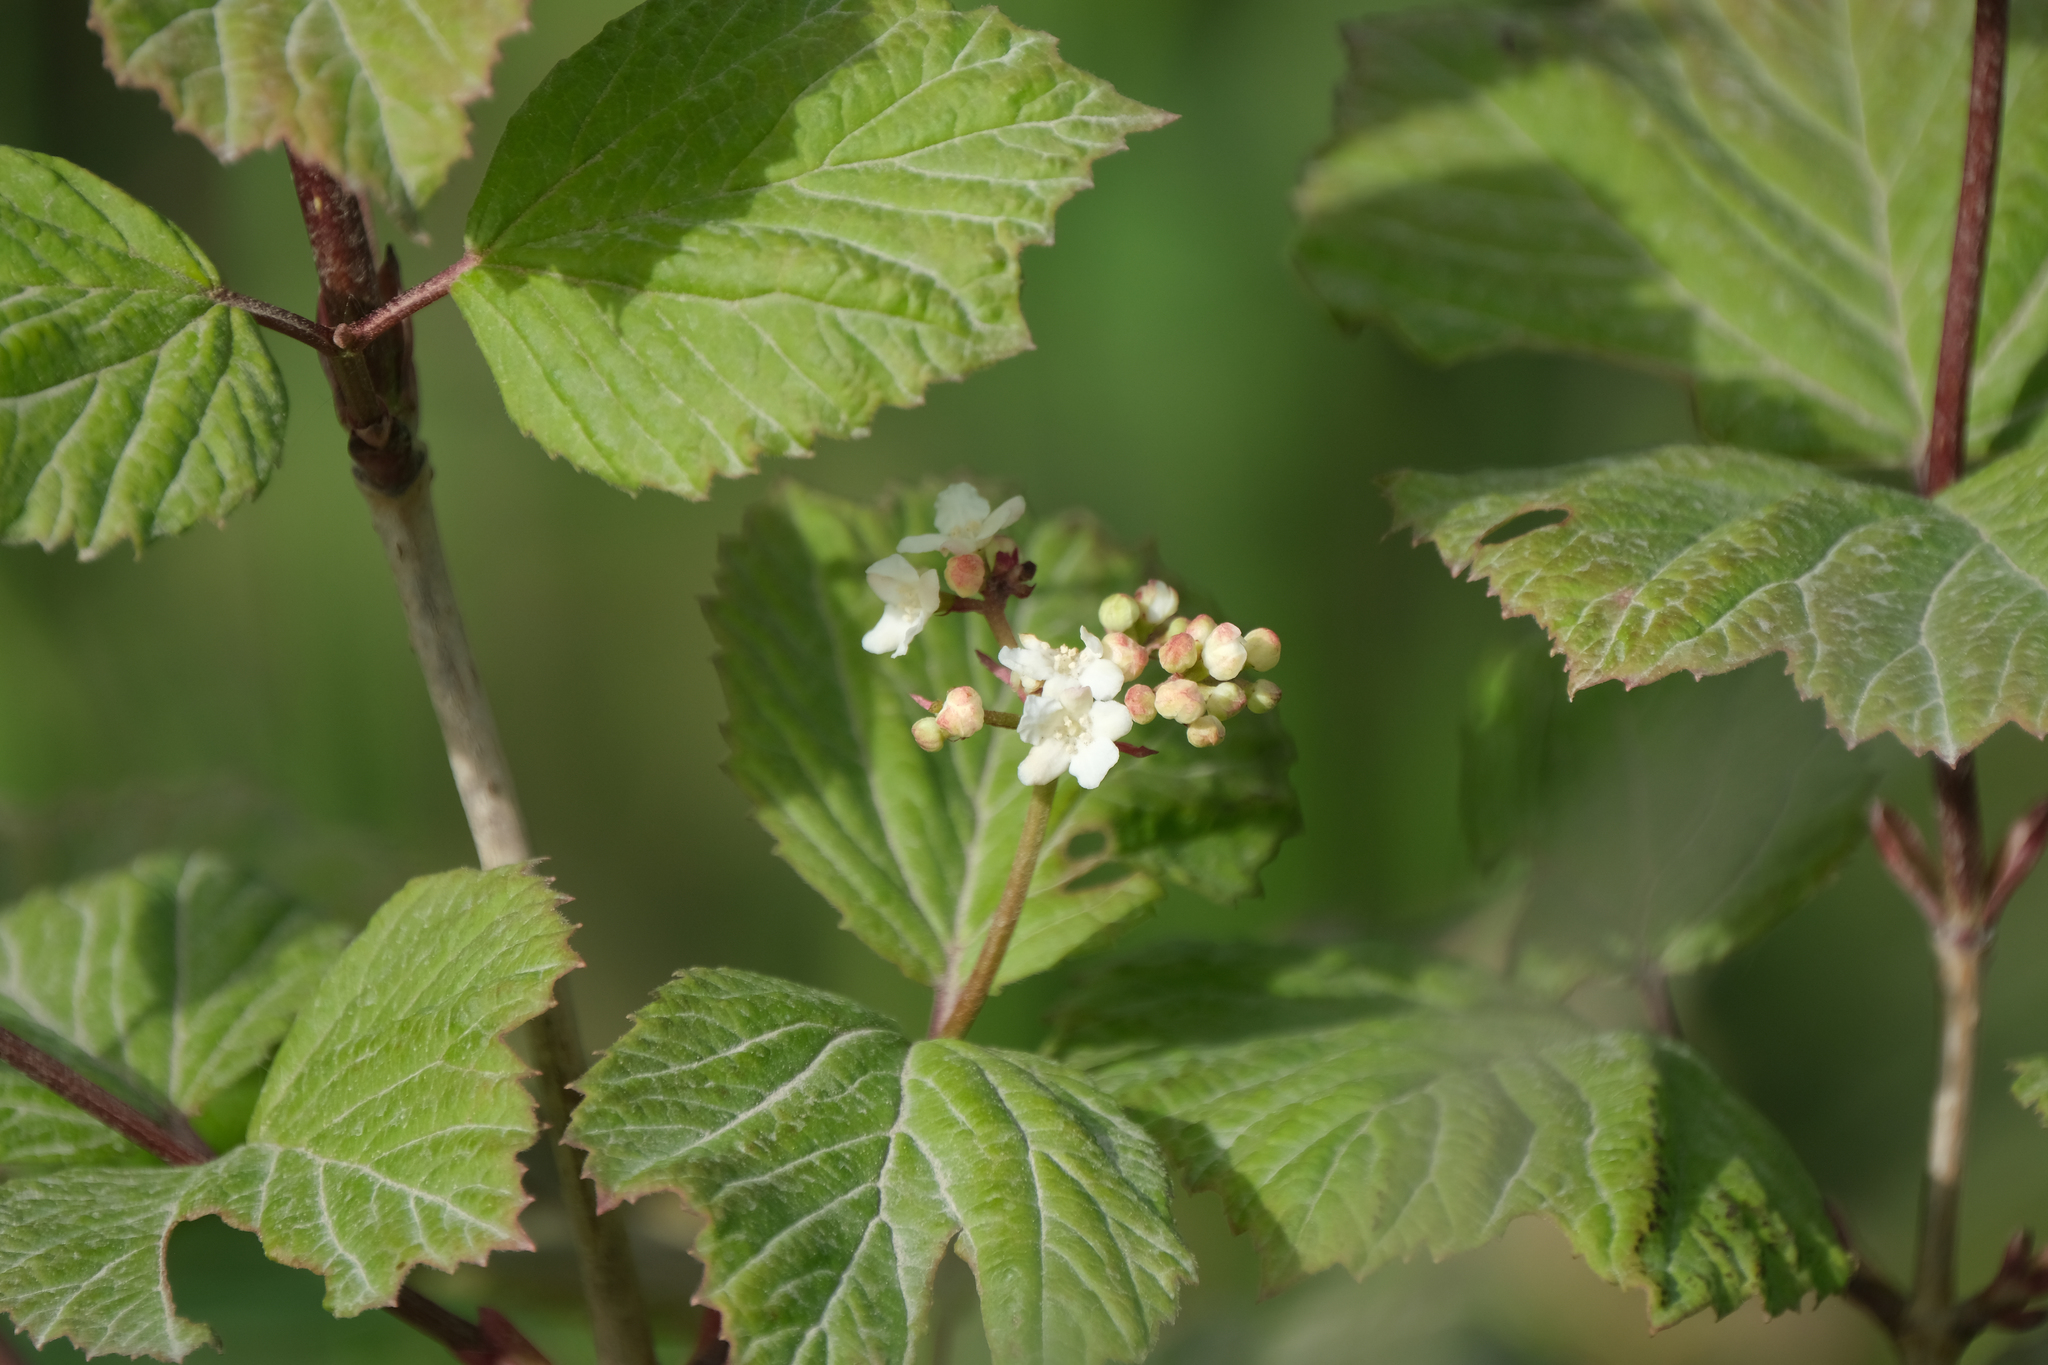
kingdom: Plantae
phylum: Tracheophyta
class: Magnoliopsida
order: Dipsacales
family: Viburnaceae
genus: Viburnum
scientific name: Viburnum edule
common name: Mooseberry
